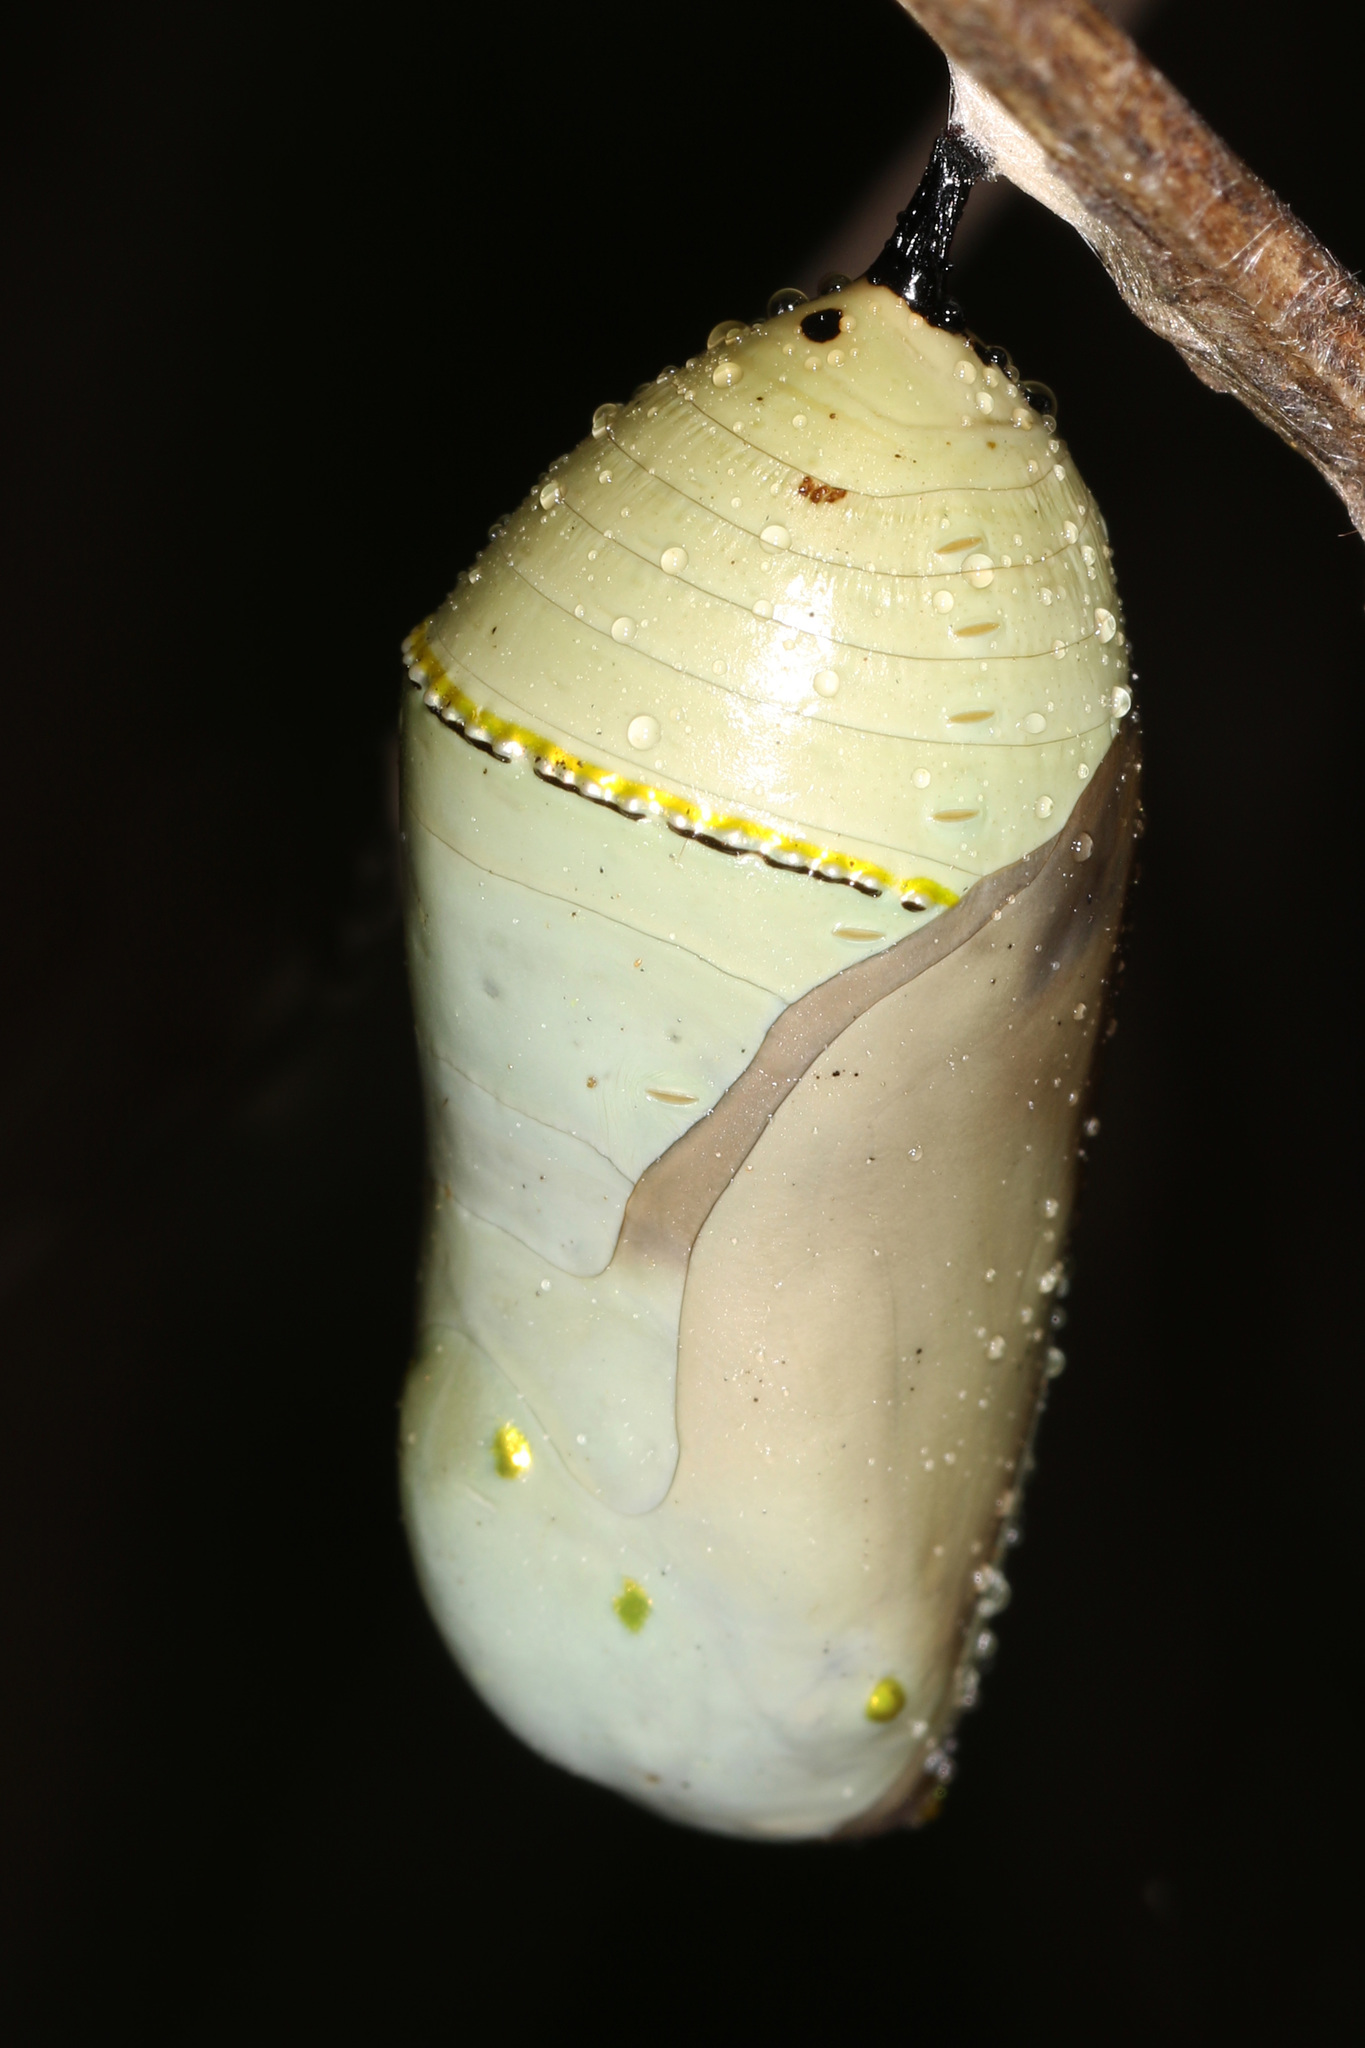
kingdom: Animalia
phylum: Arthropoda
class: Insecta
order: Lepidoptera
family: Nymphalidae
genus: Danaus
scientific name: Danaus plexippus
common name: Monarch
